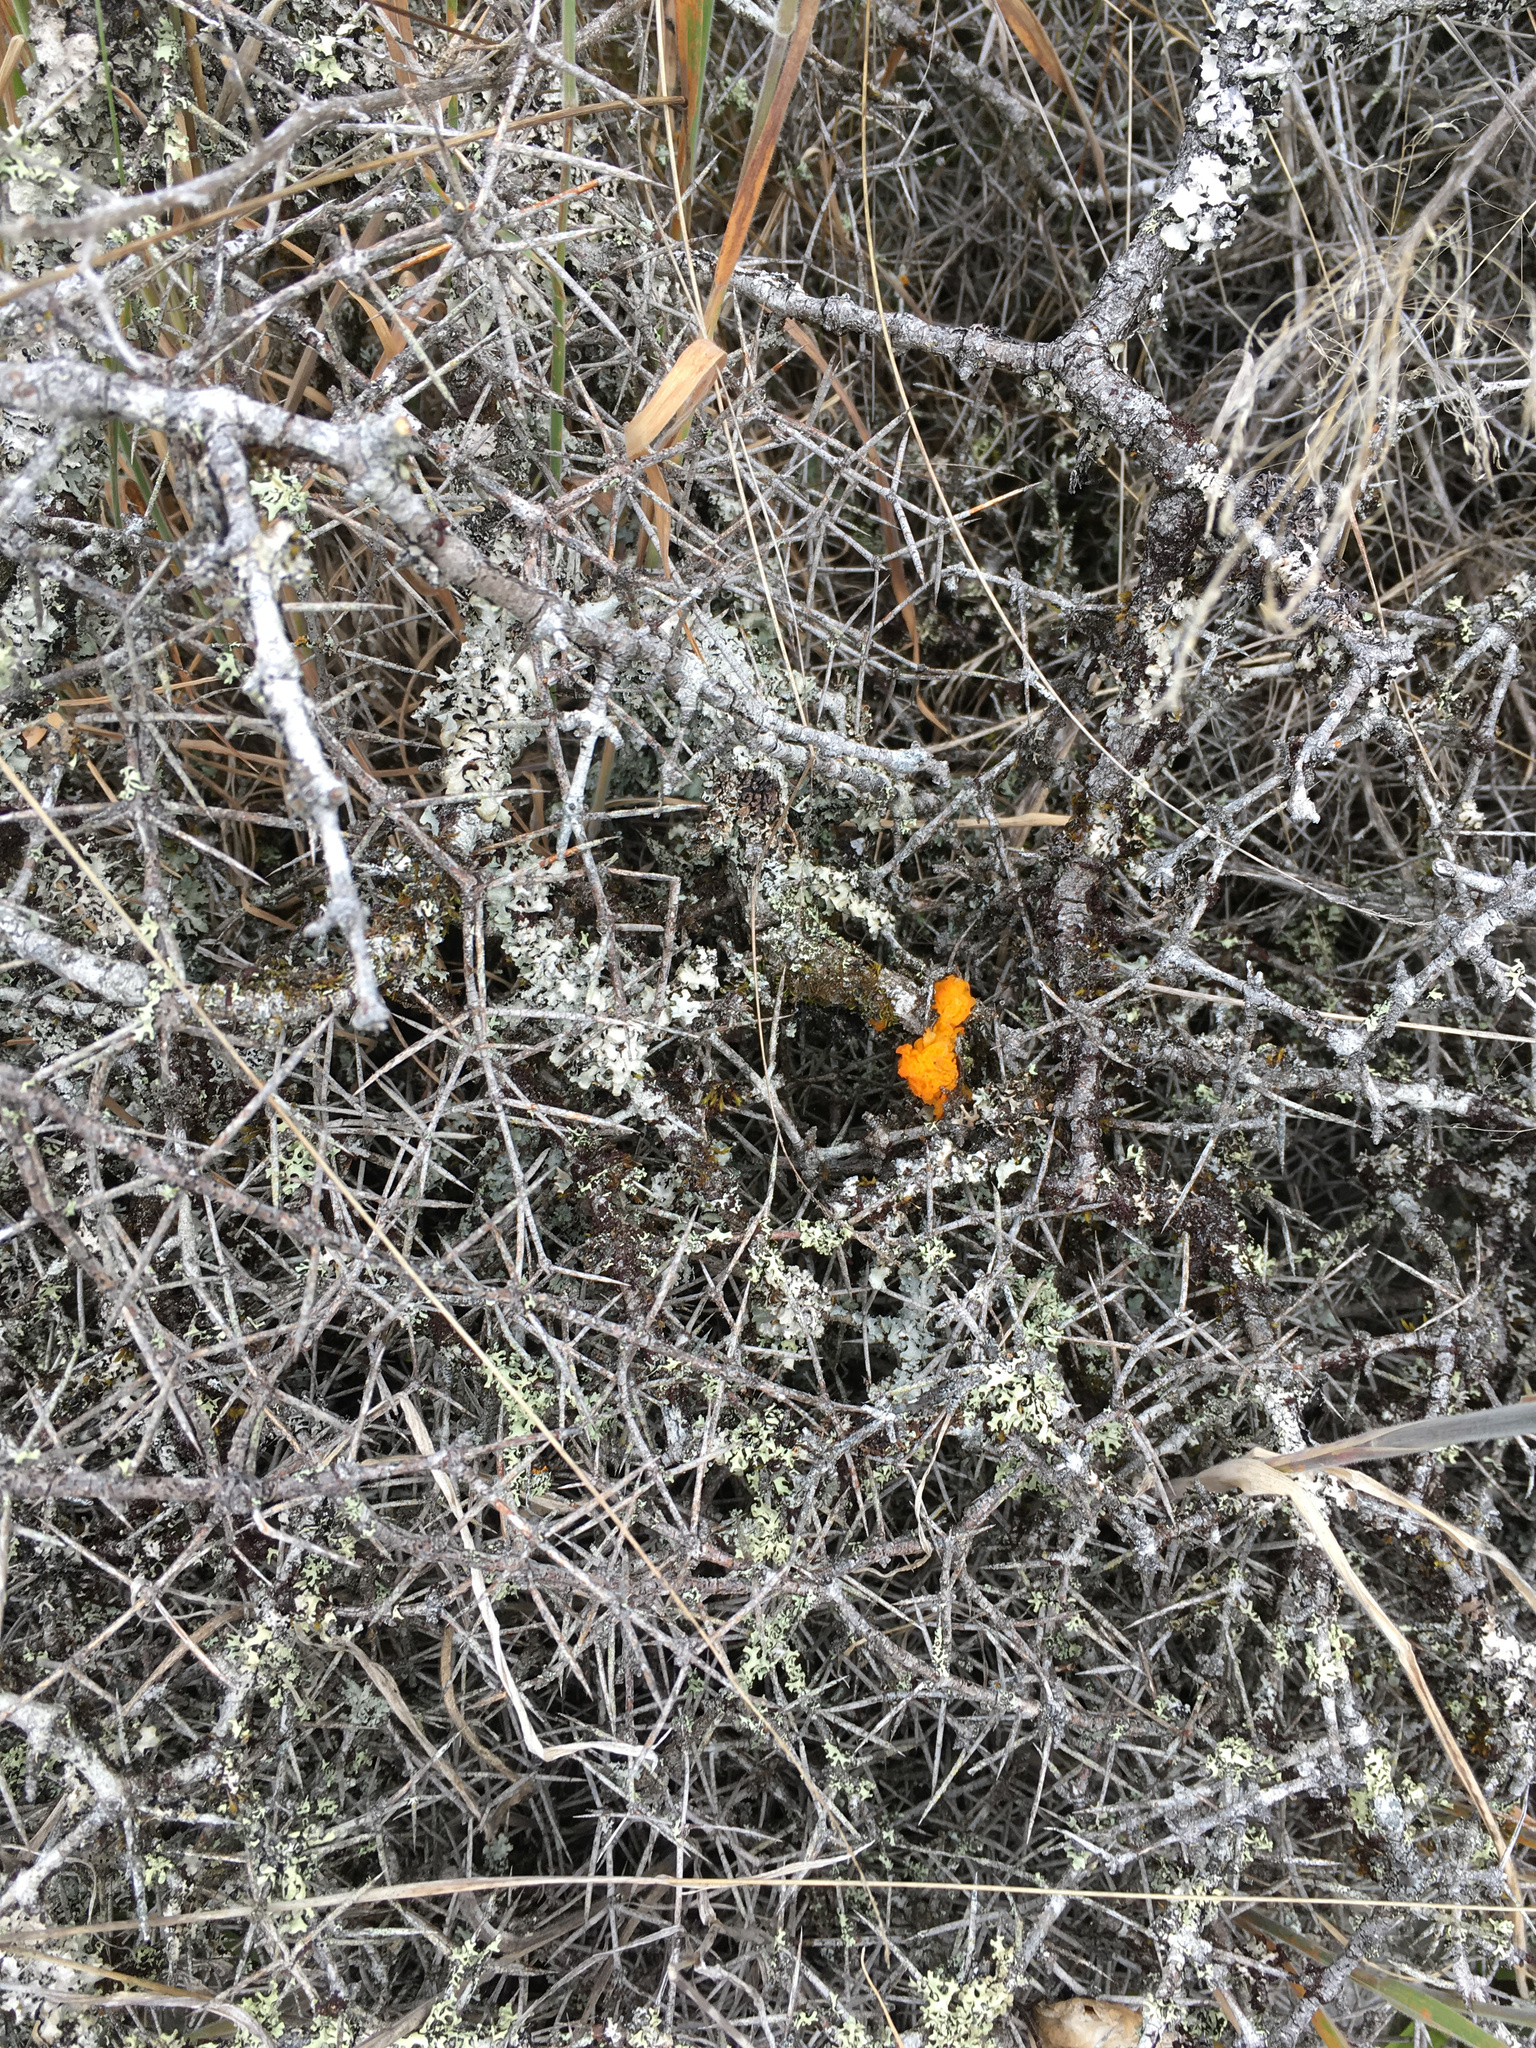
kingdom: Fungi
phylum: Basidiomycota
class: Tremellomycetes
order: Tremellales
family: Tremellaceae
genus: Tremella
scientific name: Tremella mesenterica
